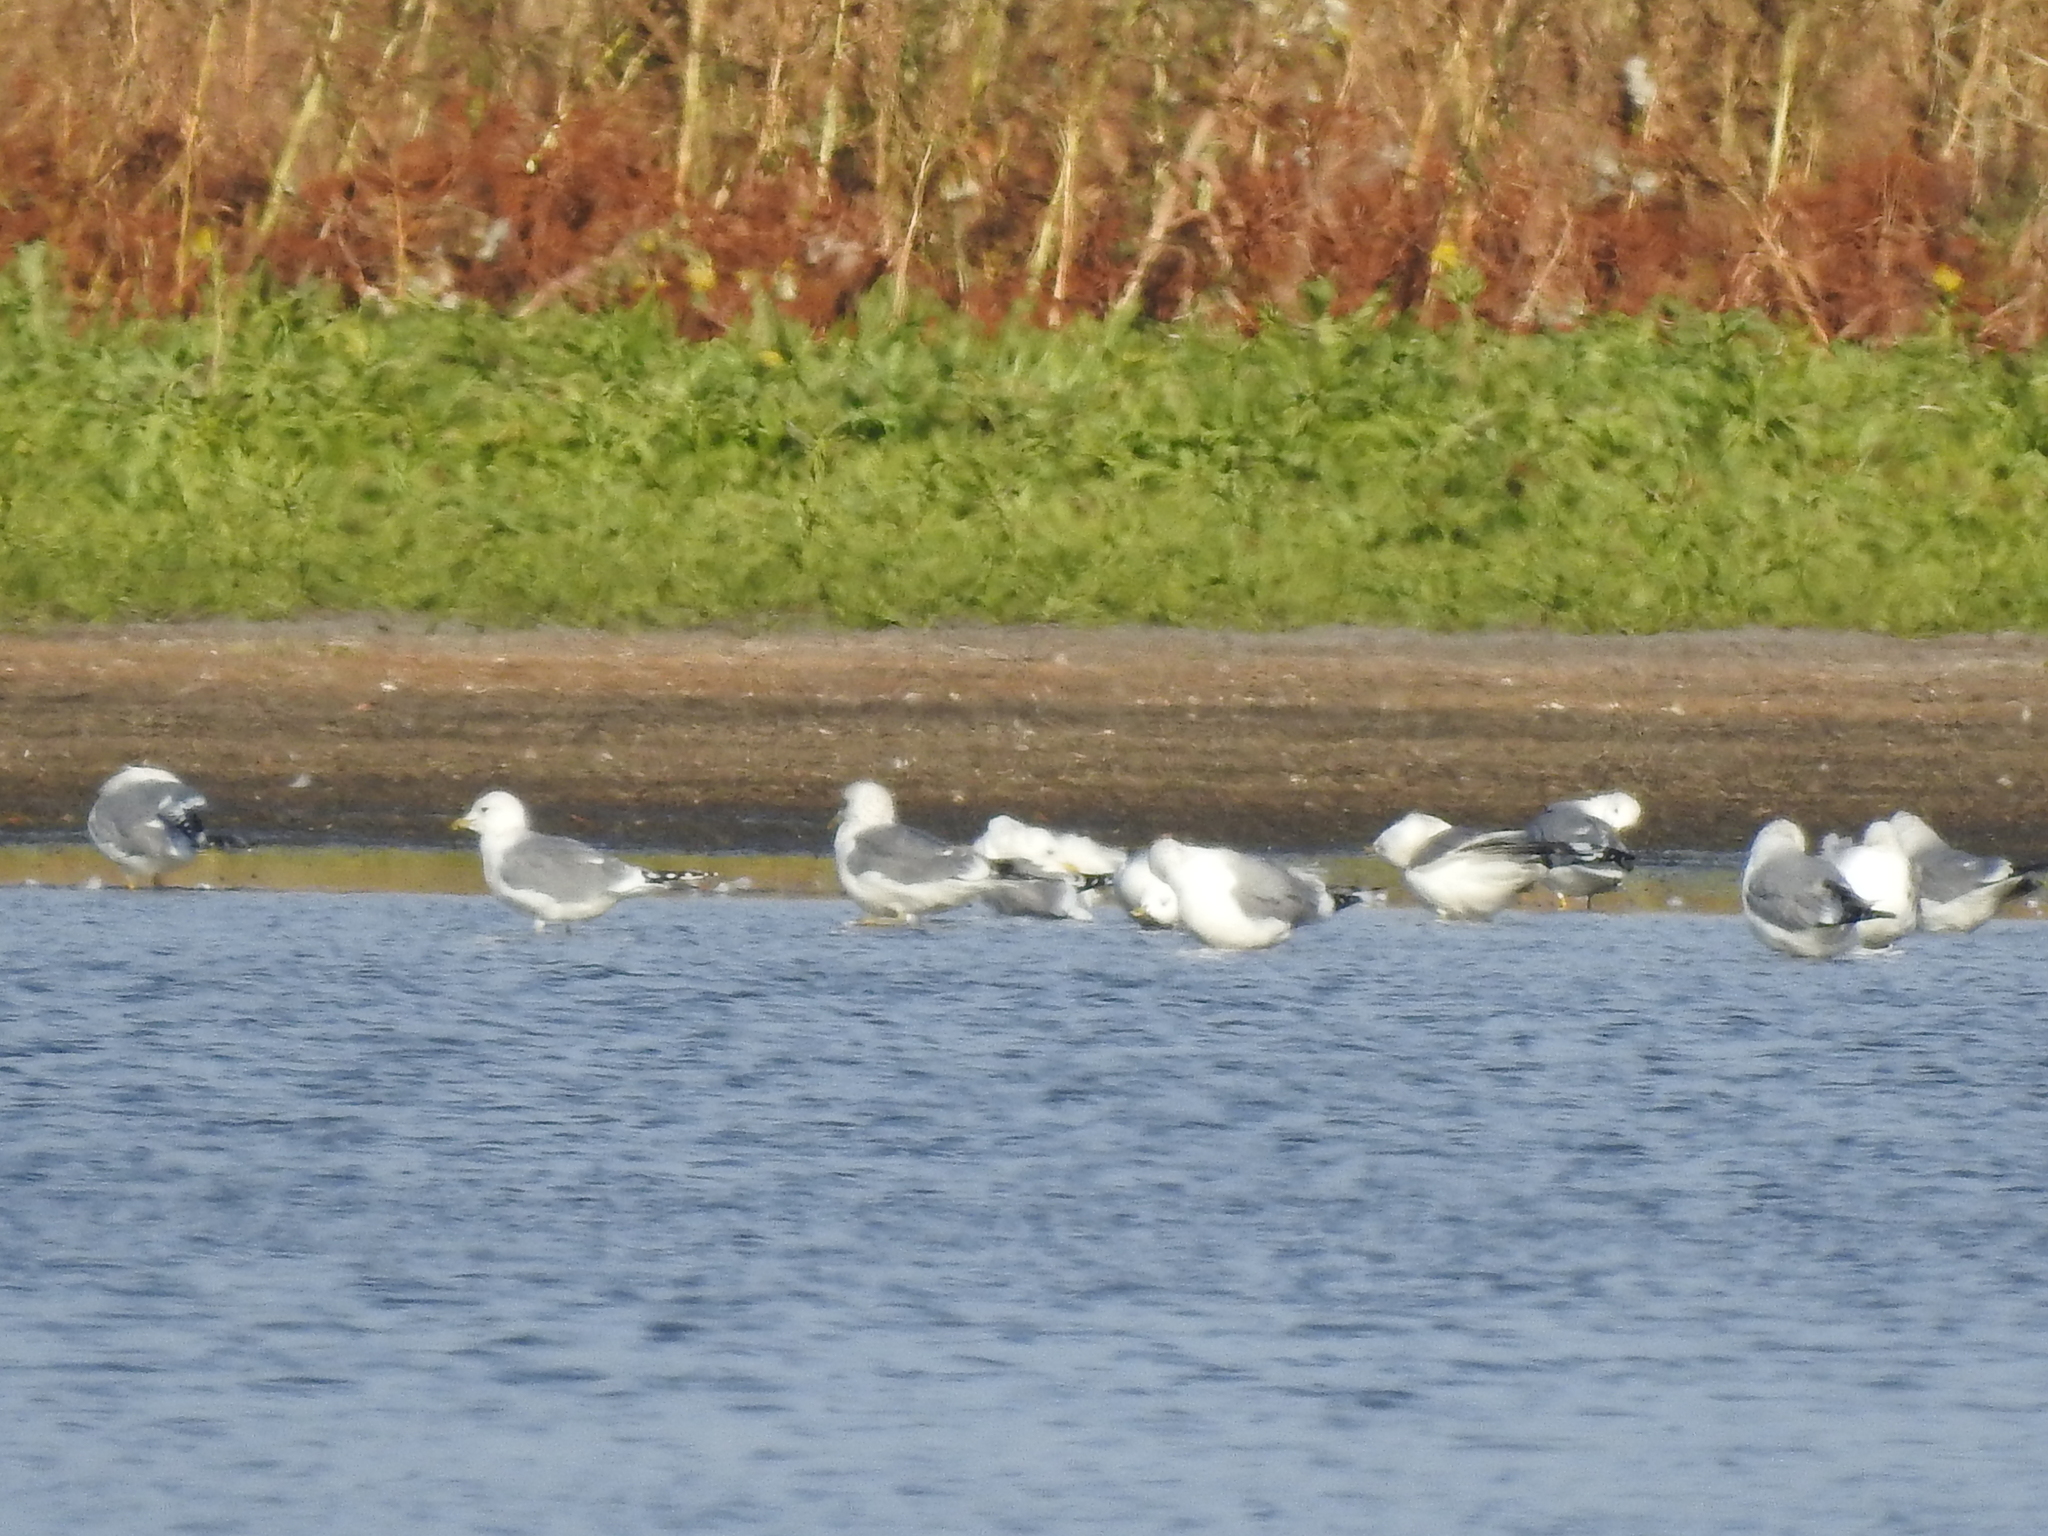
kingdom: Animalia
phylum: Chordata
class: Aves
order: Charadriiformes
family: Laridae
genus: Larus
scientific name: Larus canus
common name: Mew gull
